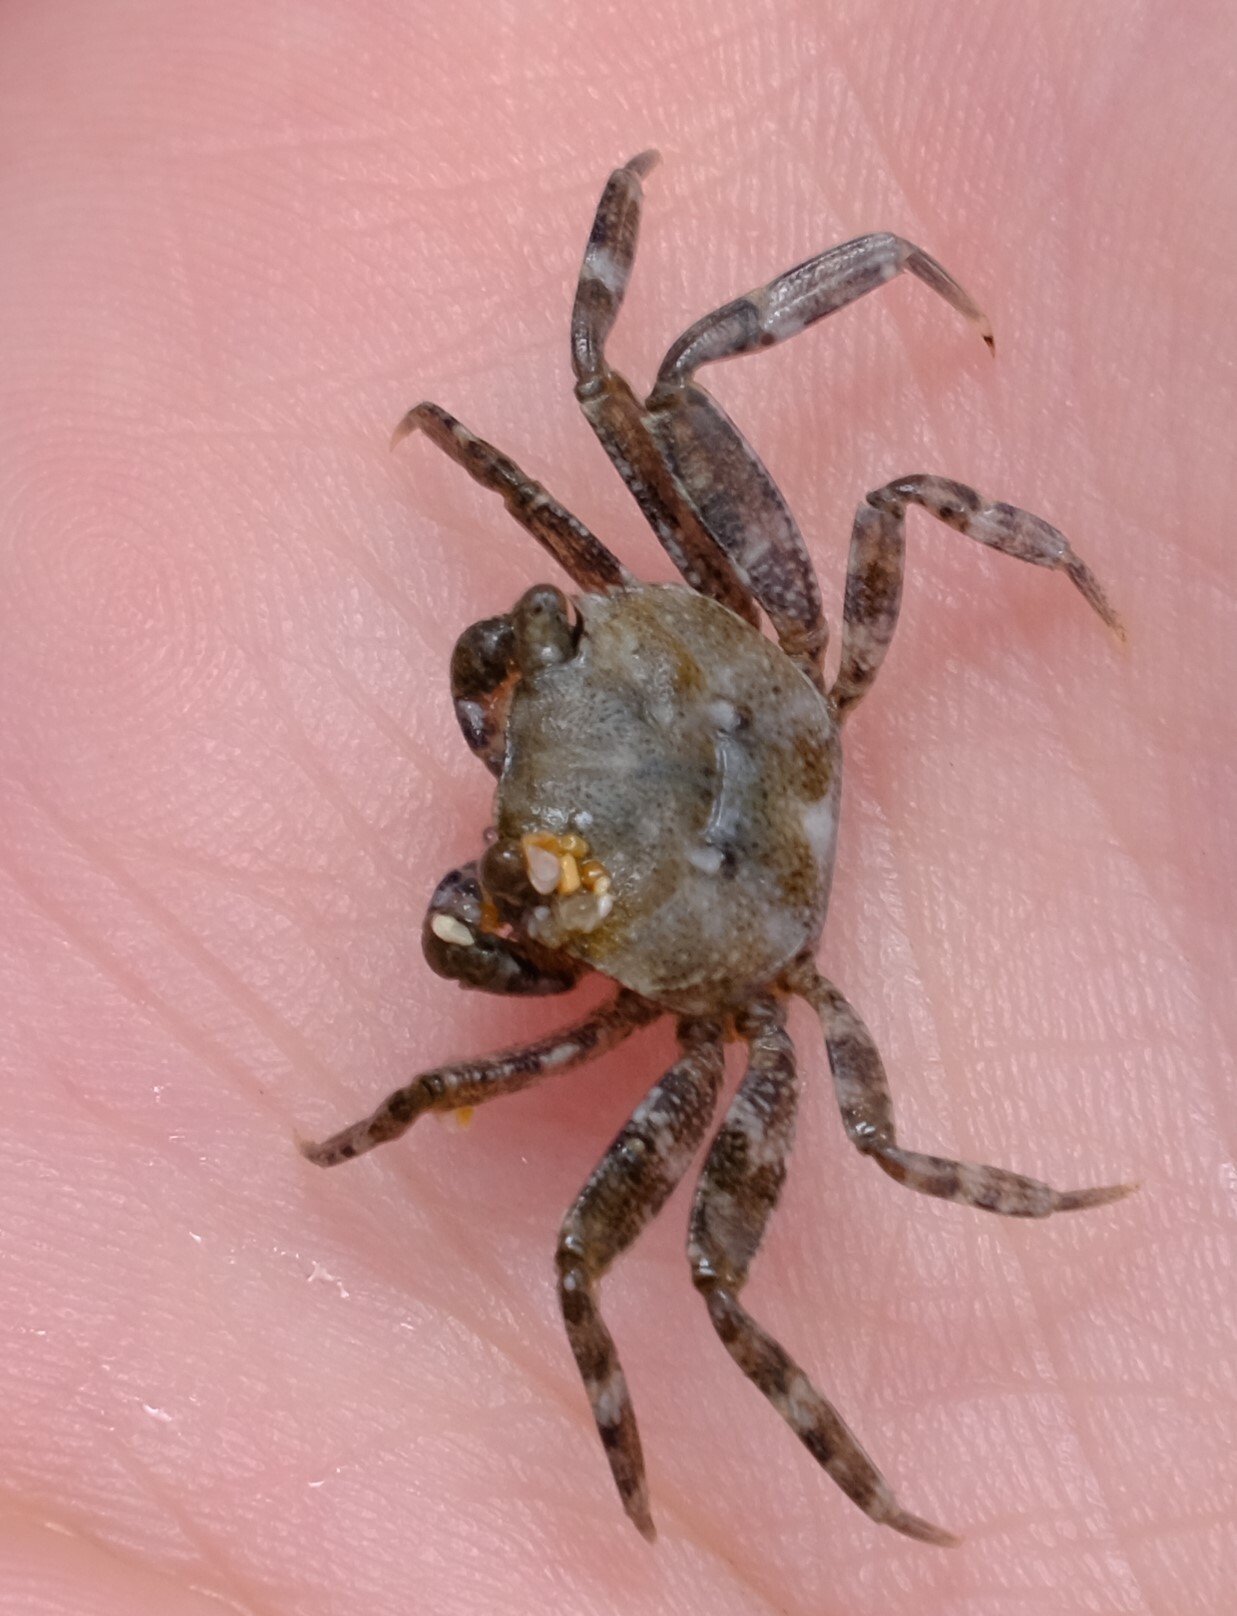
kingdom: Animalia
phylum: Arthropoda
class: Malacostraca
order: Decapoda
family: Leptograpsodidae
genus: Leptograpsodes
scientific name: Leptograpsodes octodentatus
